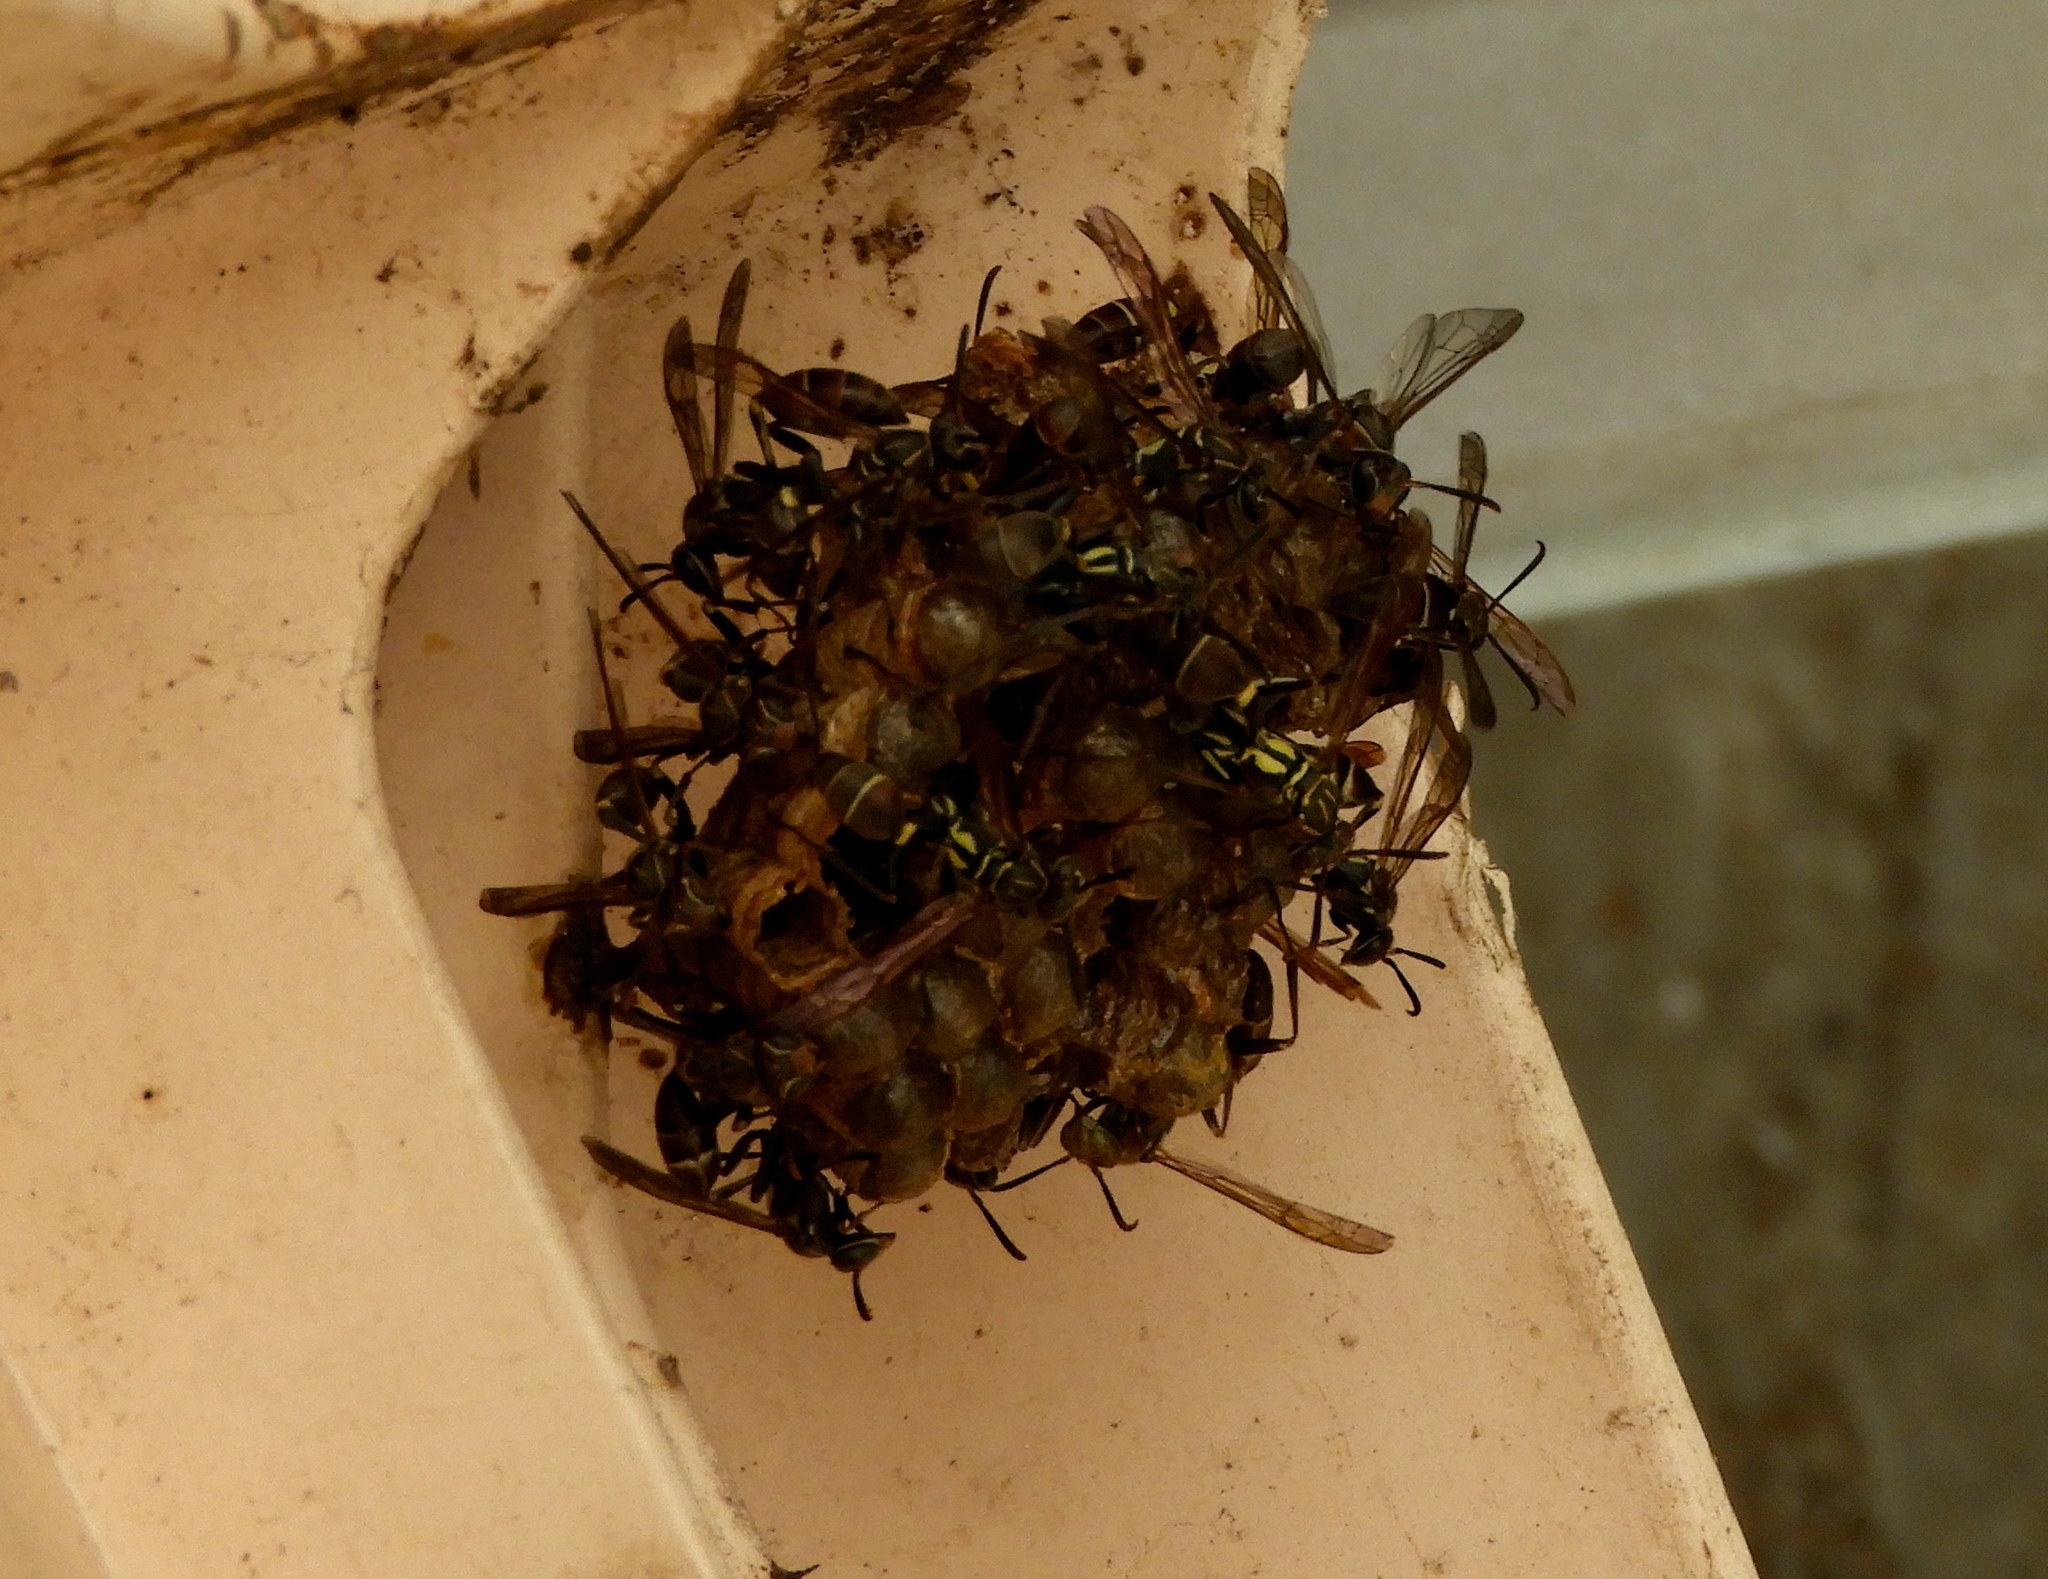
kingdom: Animalia
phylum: Arthropoda
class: Insecta
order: Hymenoptera
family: Vespidae
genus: Mischocyttarus
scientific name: Mischocyttarus mexicanus
